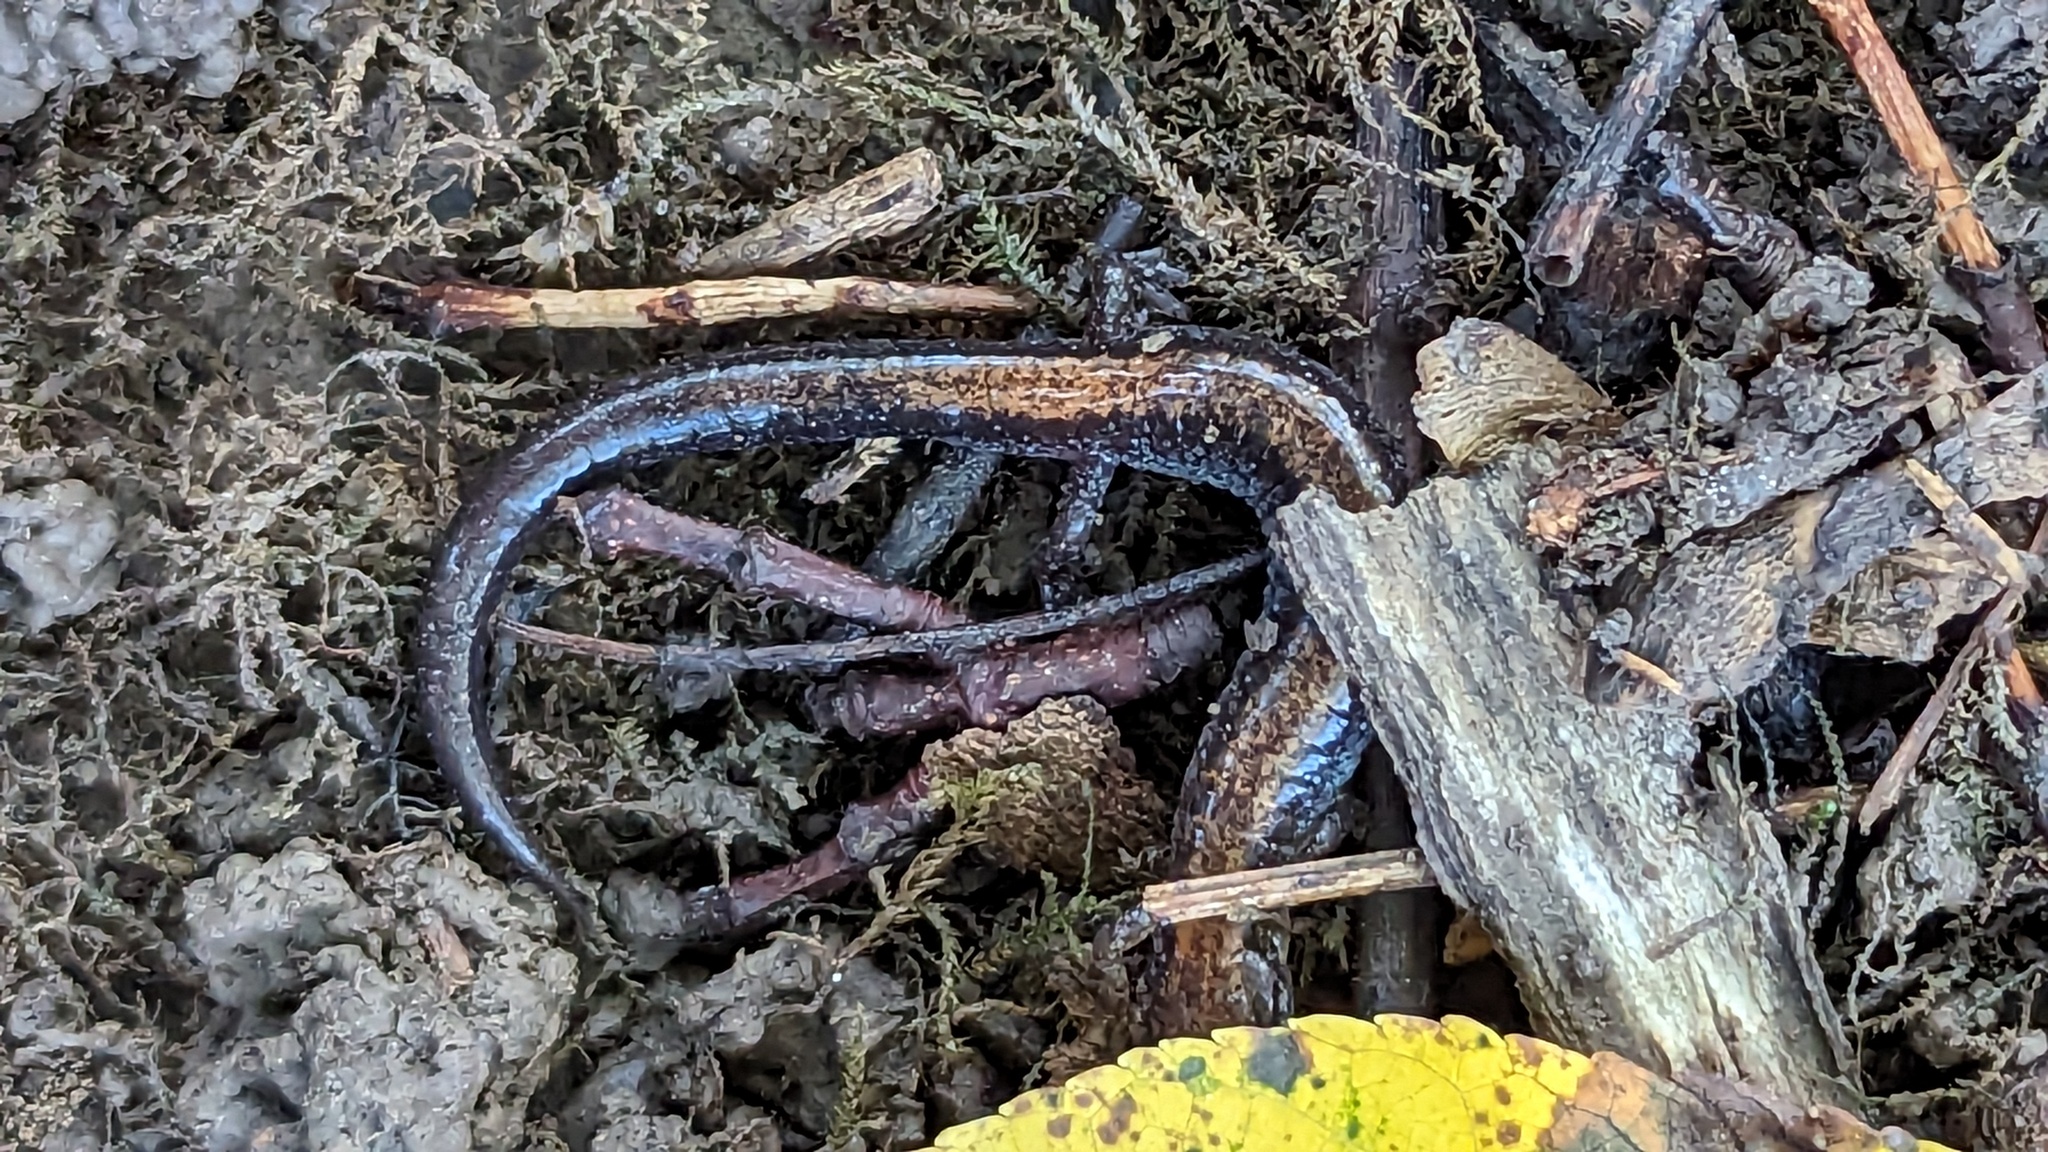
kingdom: Animalia
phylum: Chordata
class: Amphibia
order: Caudata
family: Plethodontidae
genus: Plethodon
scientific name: Plethodon cinereus
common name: Redback salamander
